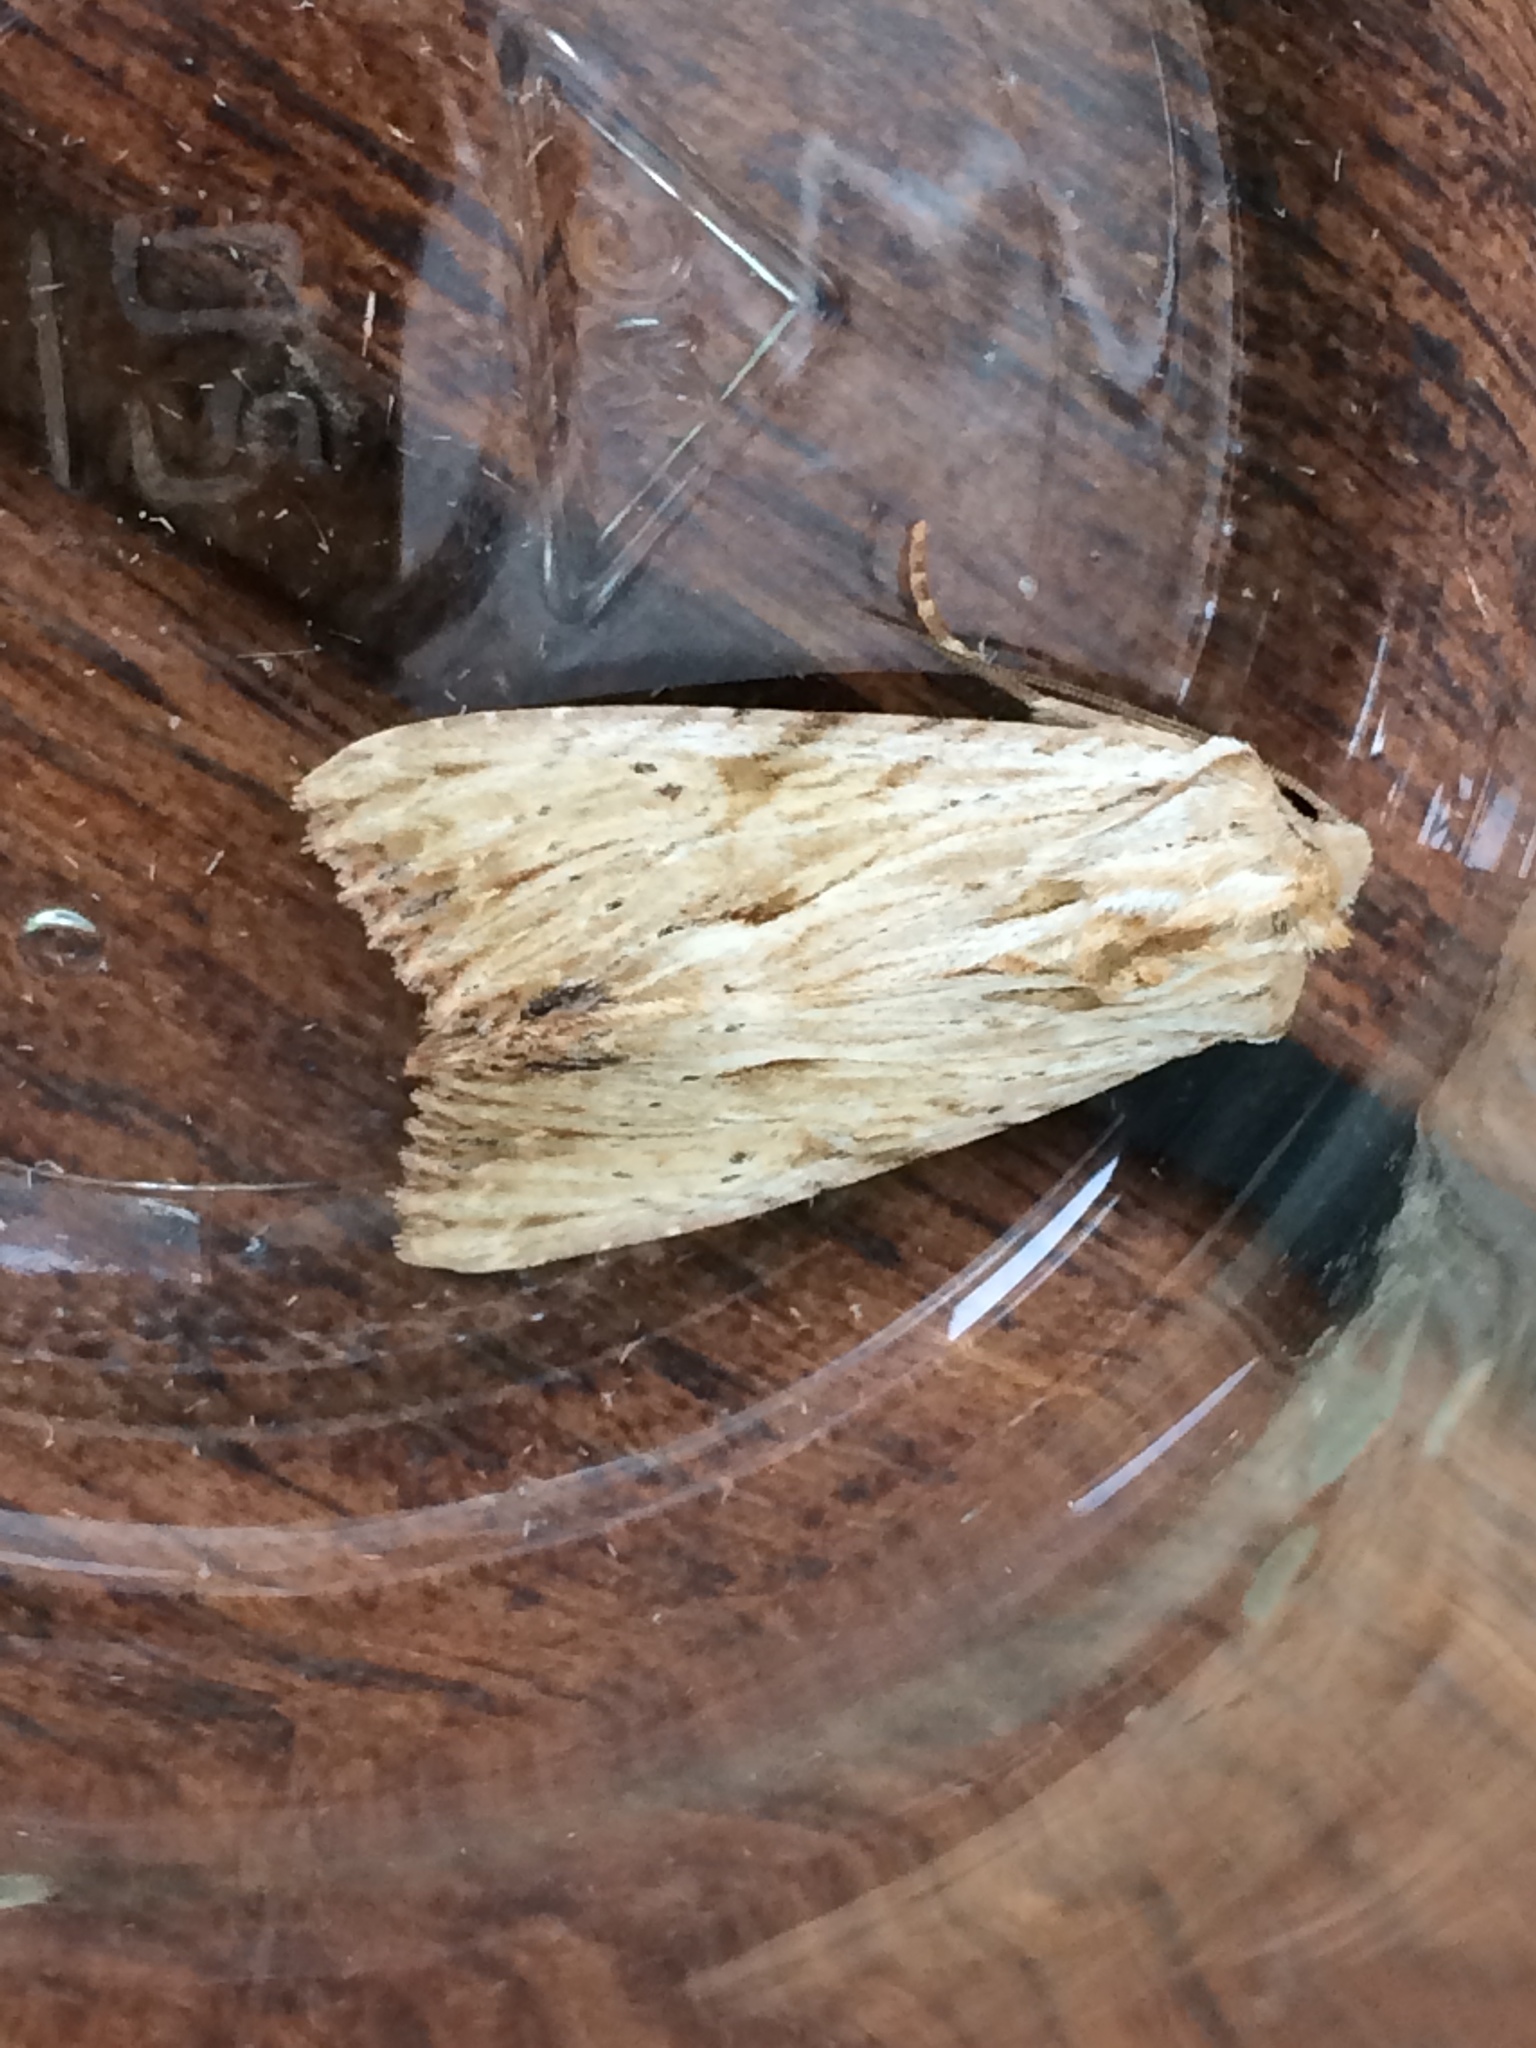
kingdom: Animalia
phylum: Arthropoda
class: Insecta
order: Lepidoptera
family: Noctuidae
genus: Apamea
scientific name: Apamea lithoxylaea
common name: Light arches
